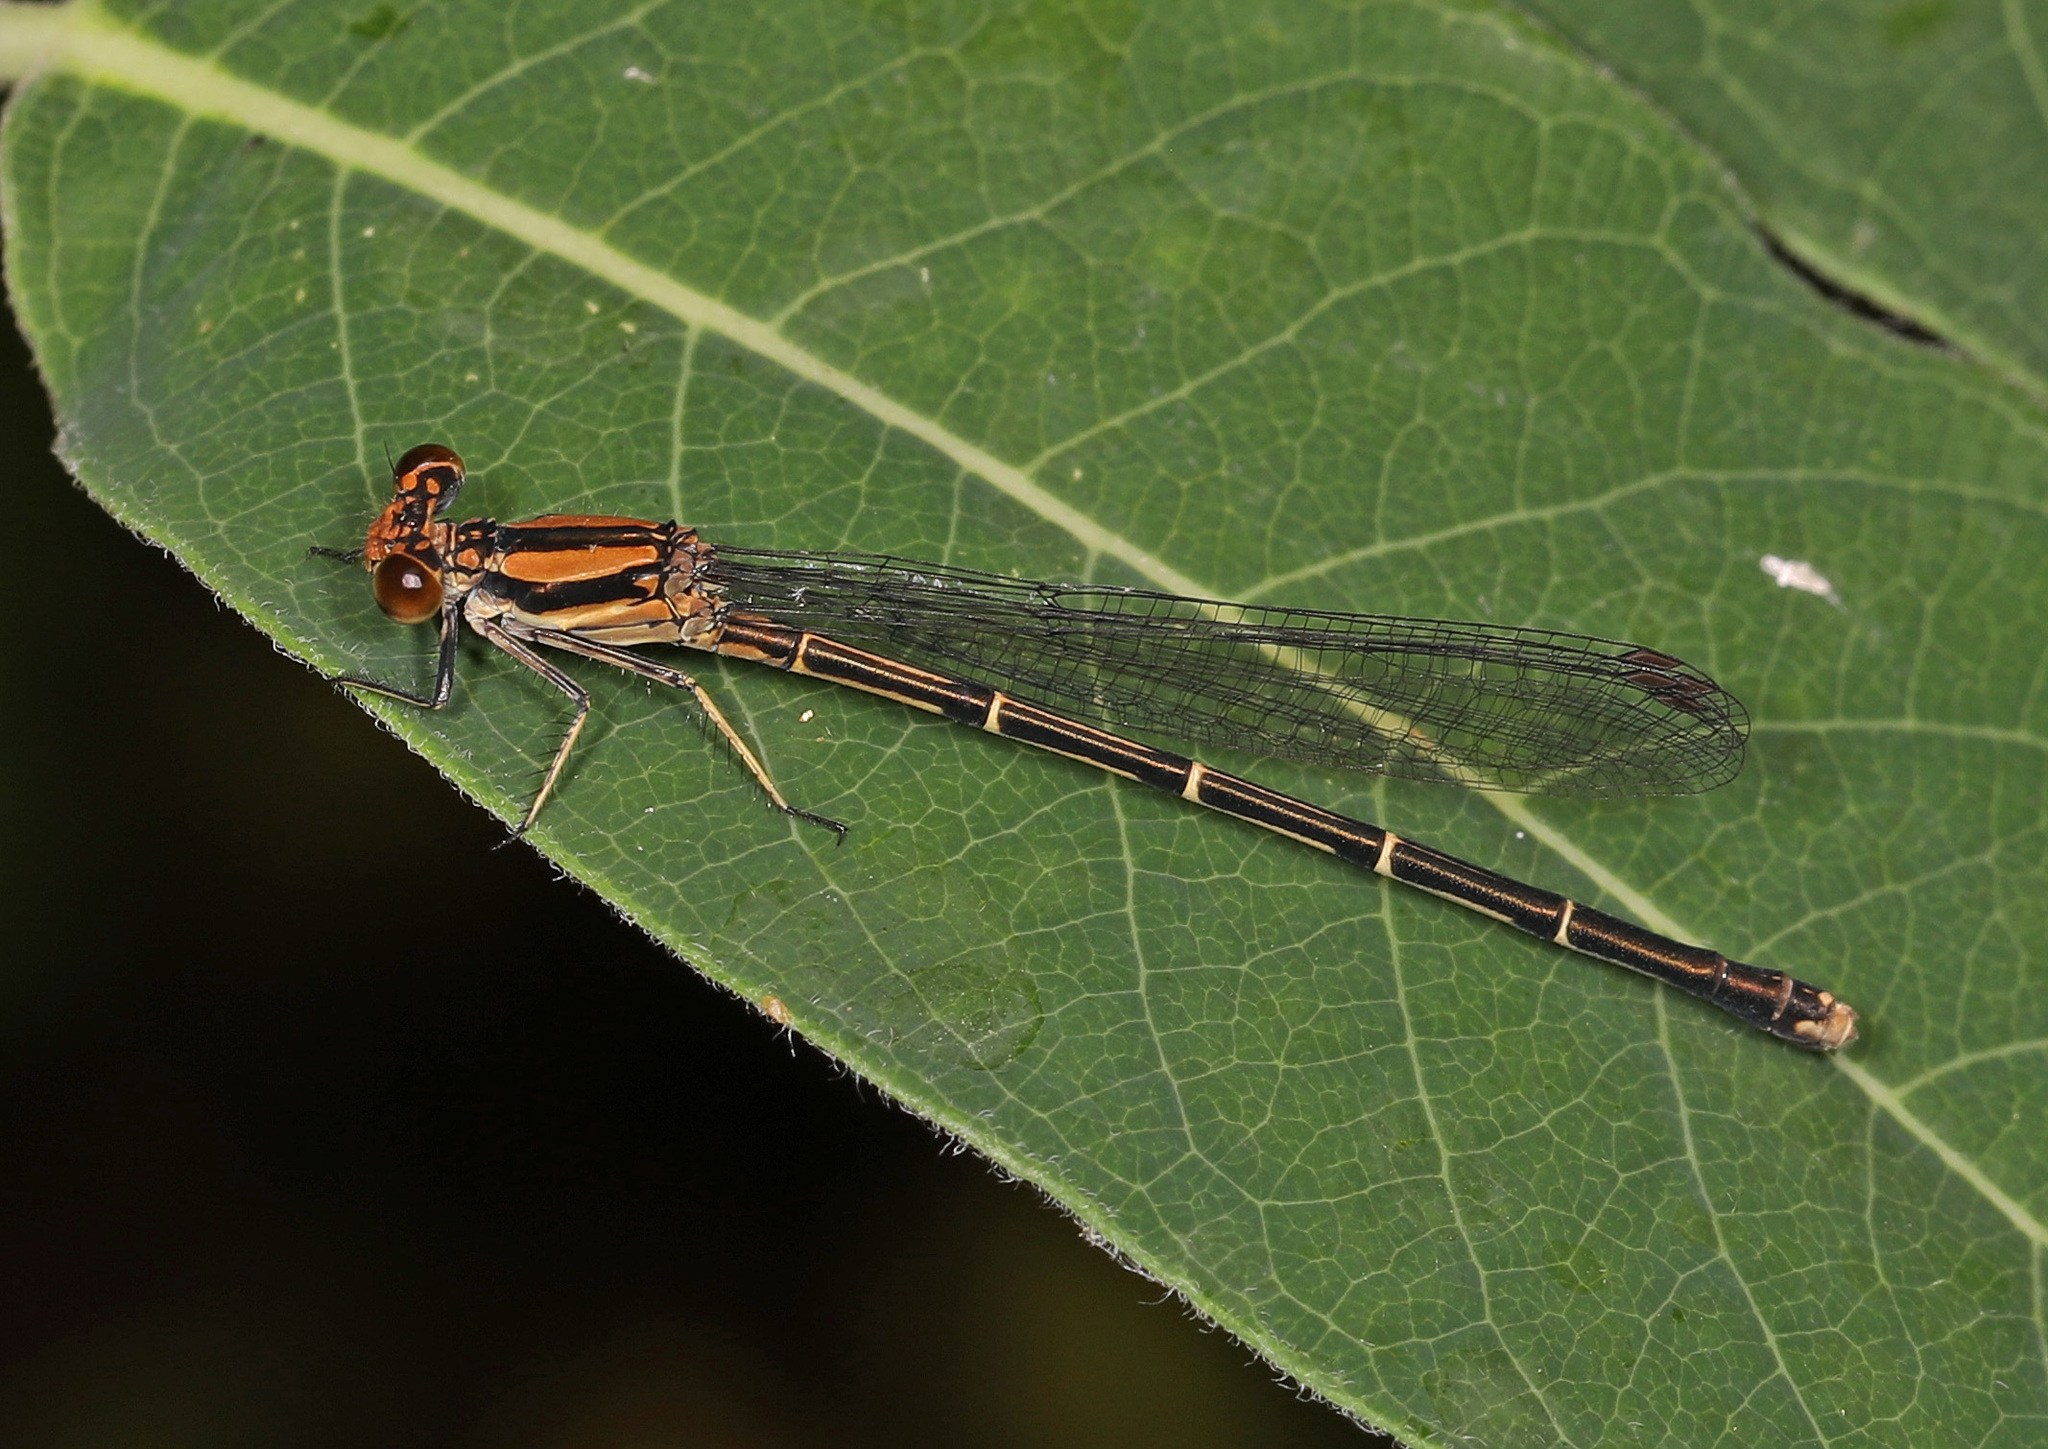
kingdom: Animalia
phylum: Arthropoda
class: Insecta
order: Odonata
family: Coenagrionidae
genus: Argia
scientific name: Argia tibialis
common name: Blue-tipped dancer
